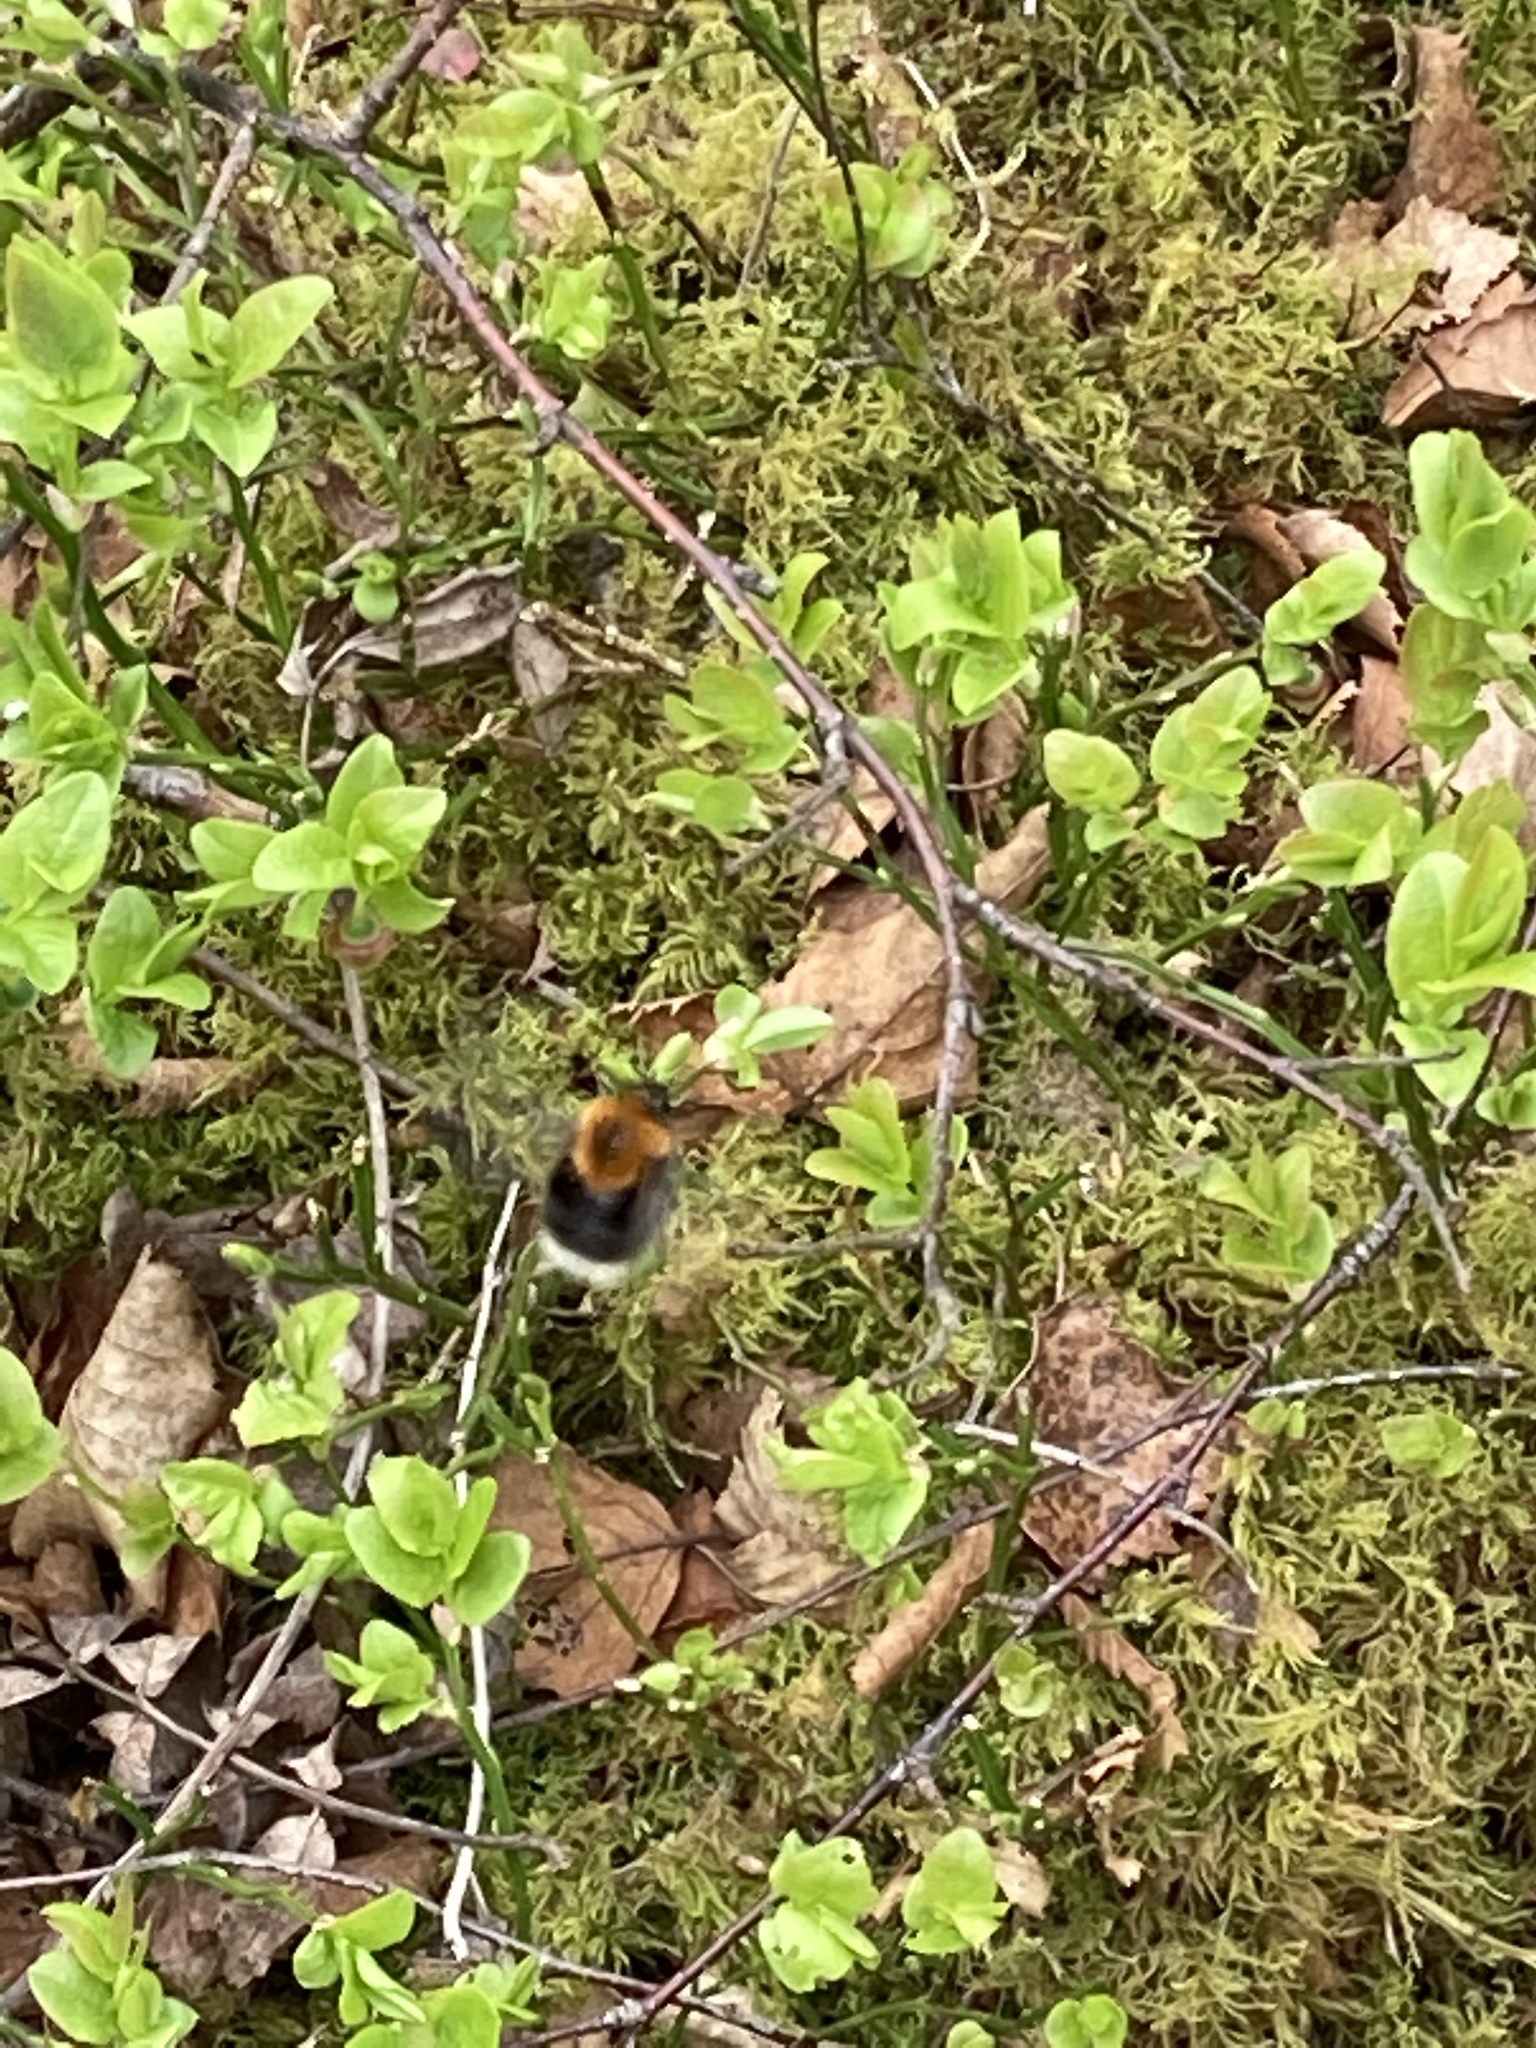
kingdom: Animalia
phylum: Arthropoda
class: Insecta
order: Hymenoptera
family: Apidae
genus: Bombus
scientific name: Bombus hypnorum
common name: New garden bumblebee
